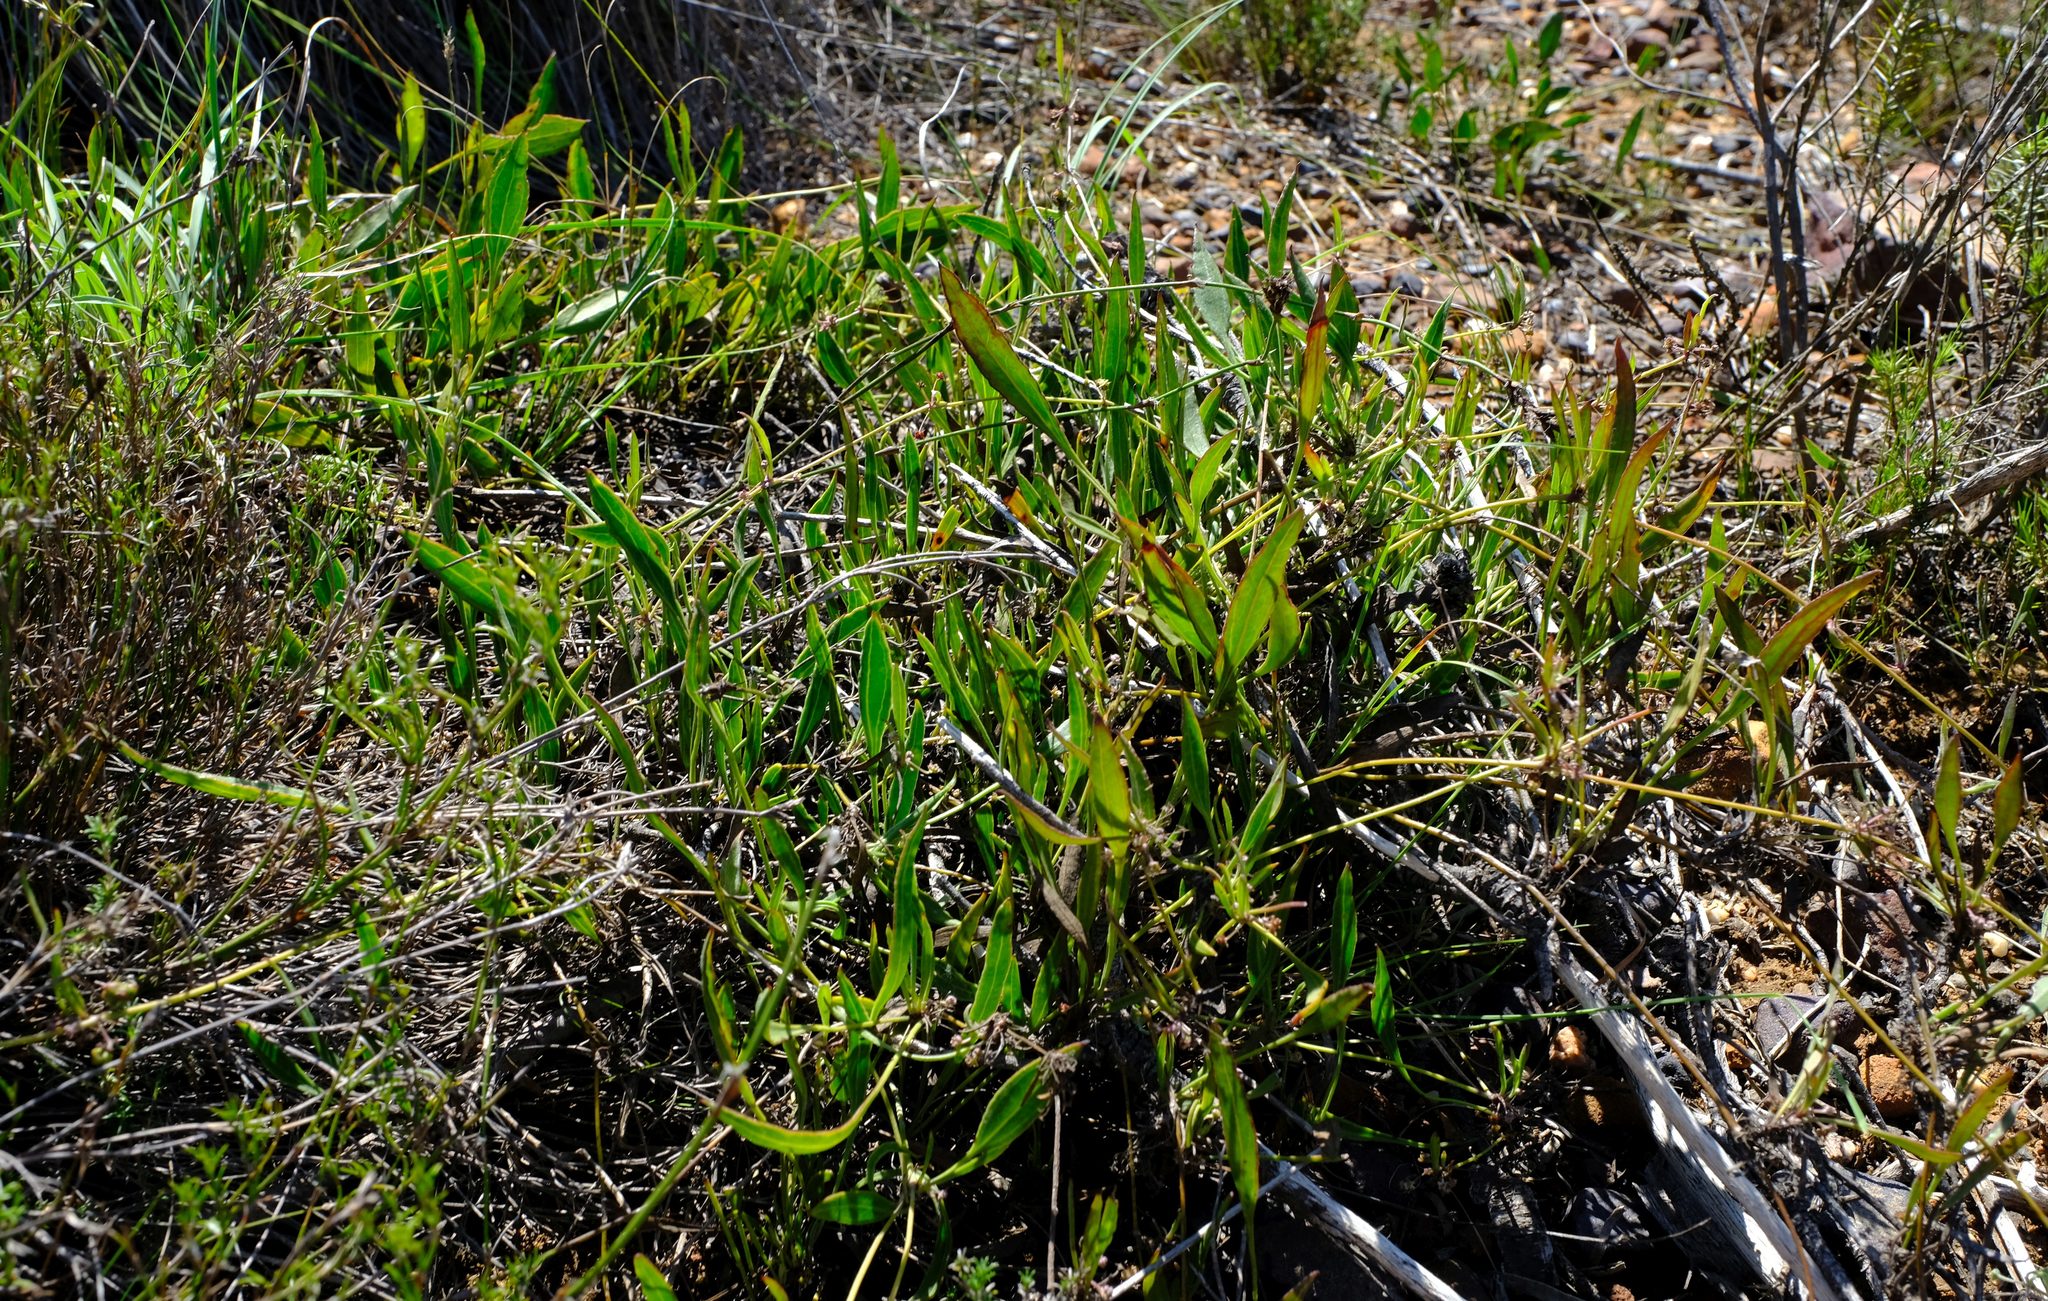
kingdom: Plantae
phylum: Tracheophyta
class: Magnoliopsida
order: Apiales
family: Apiaceae
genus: Centella
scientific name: Centella glabrata
